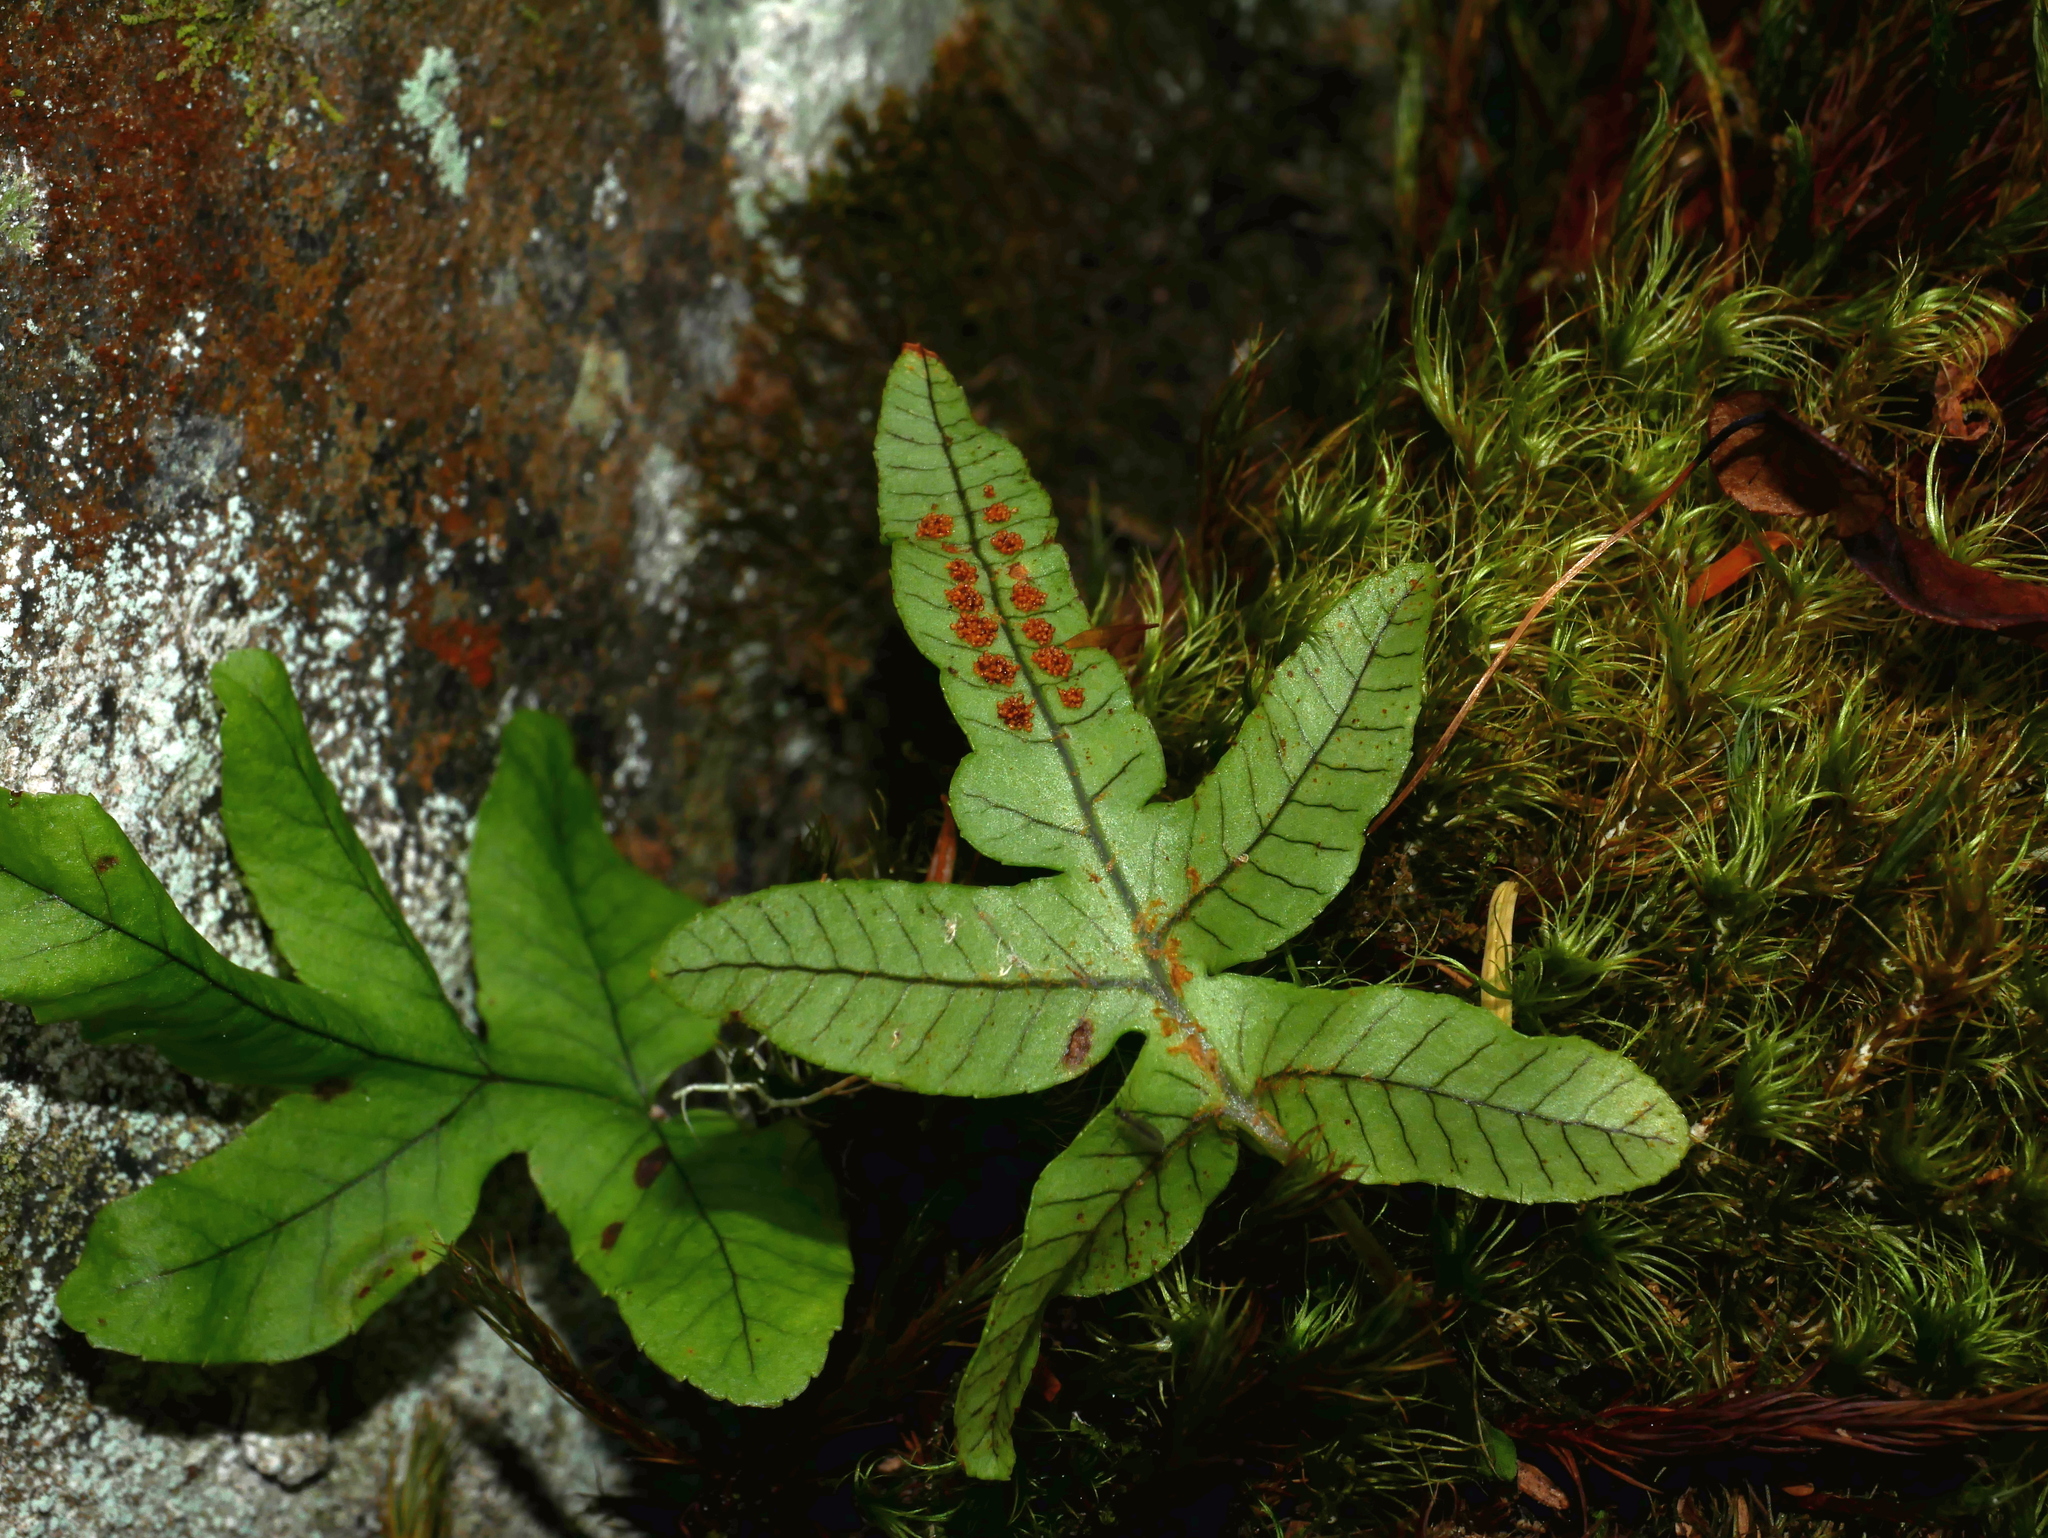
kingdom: Plantae
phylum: Tracheophyta
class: Polypodiopsida
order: Polypodiales
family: Polypodiaceae
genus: Selliguea
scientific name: Selliguea quasidivaricata
